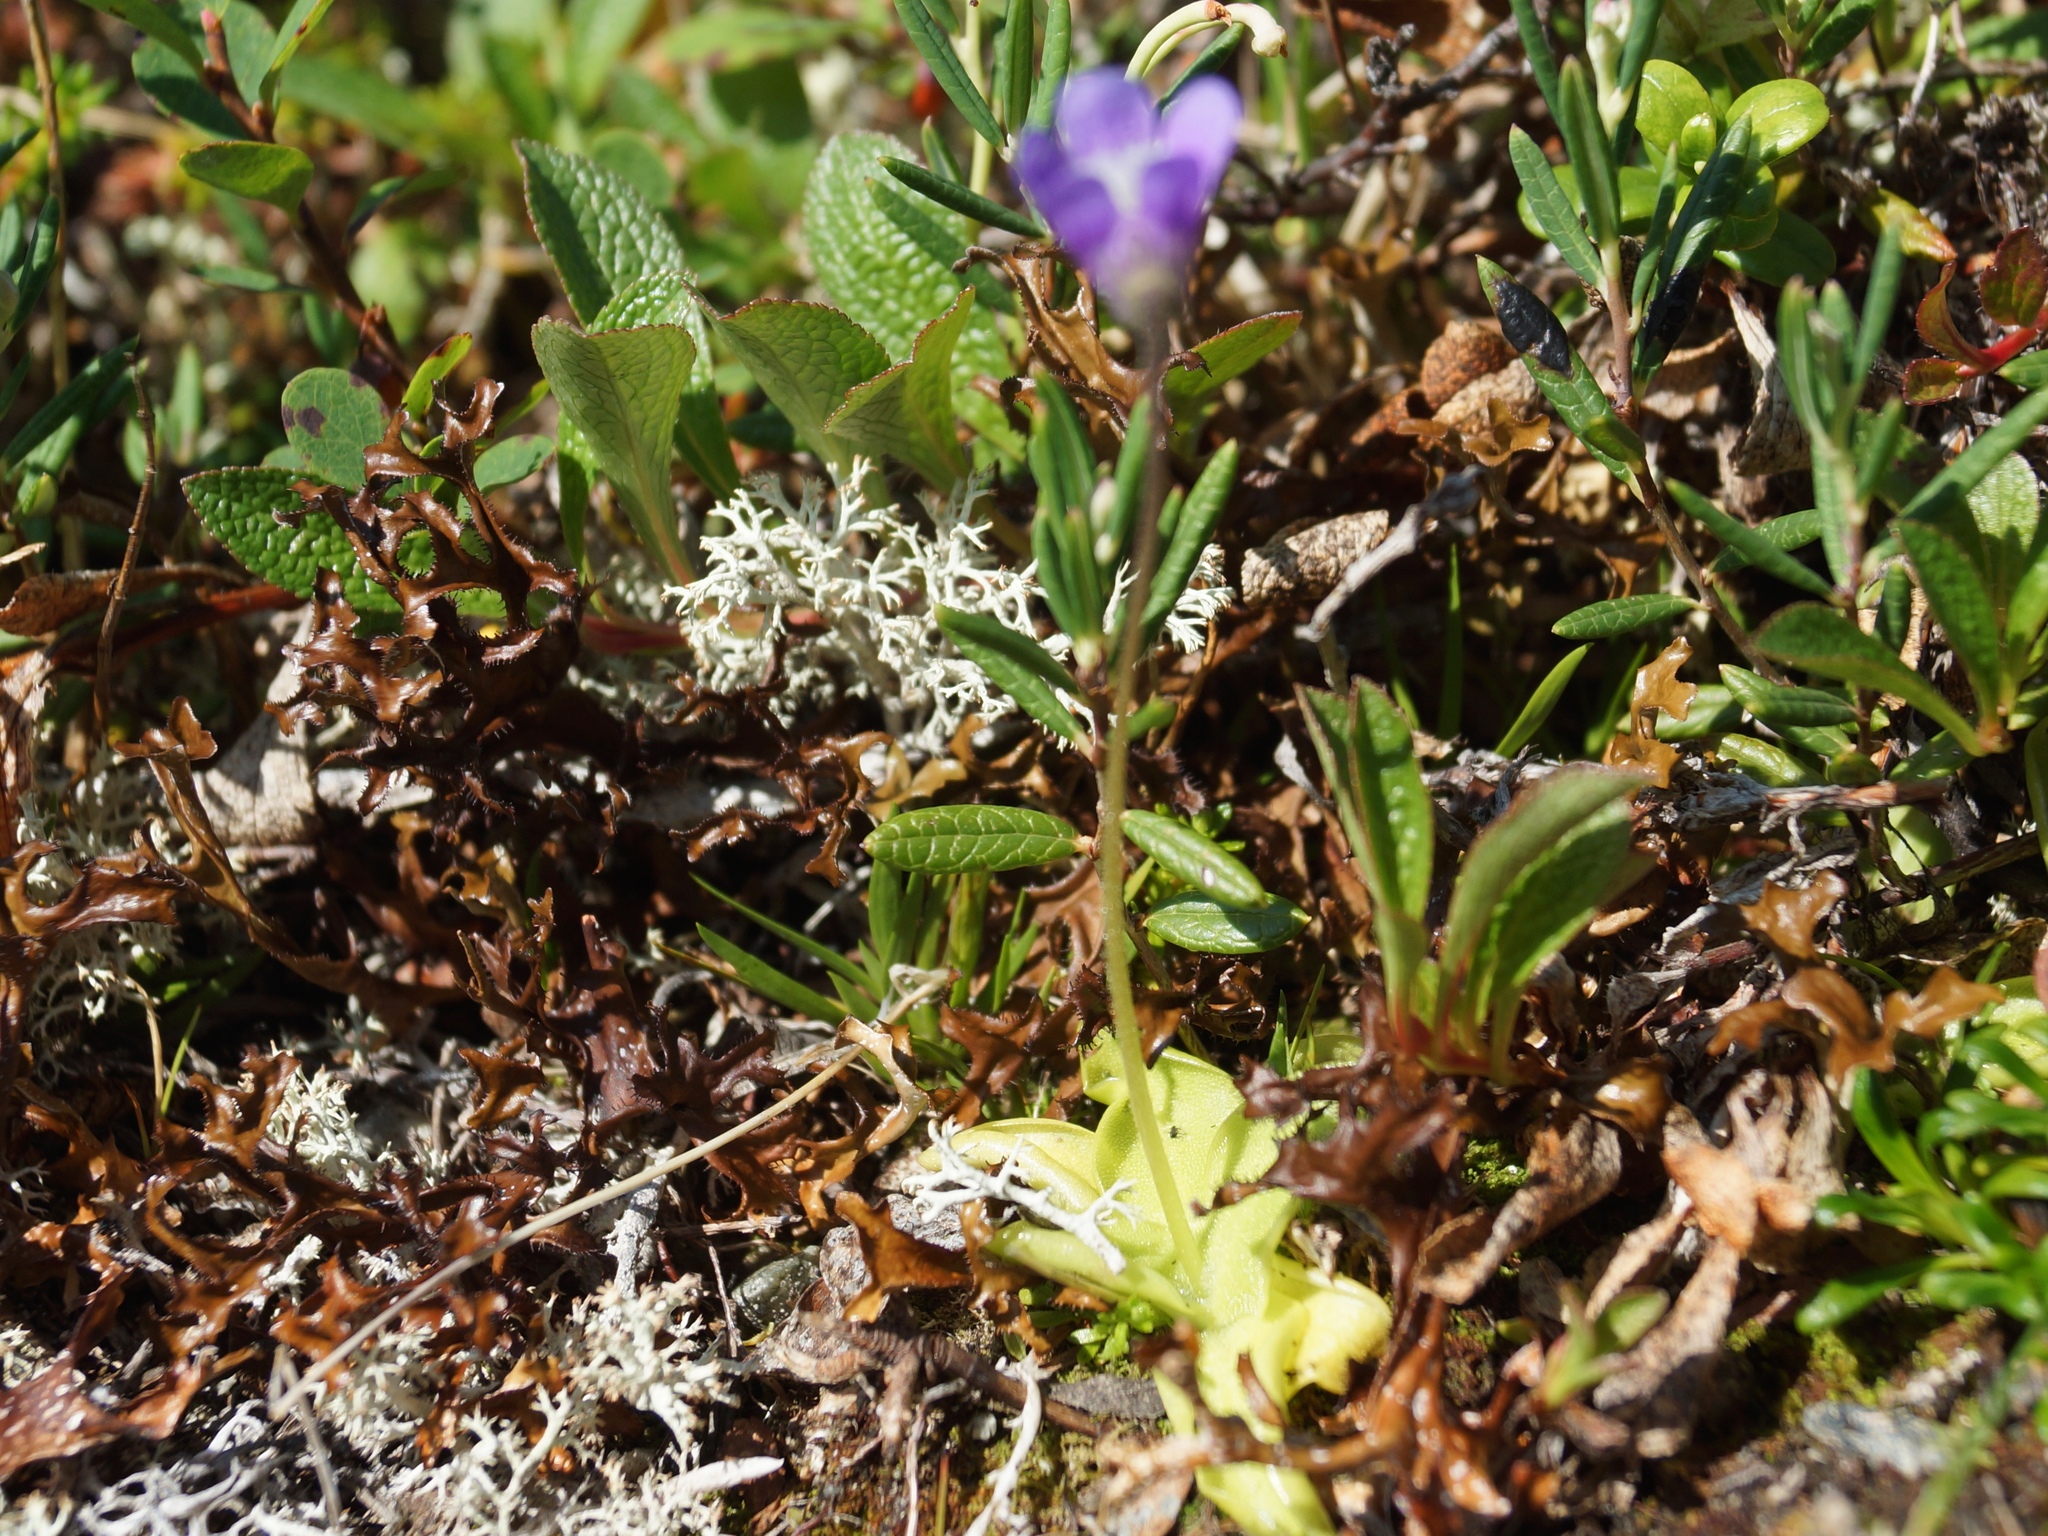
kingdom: Plantae
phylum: Tracheophyta
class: Magnoliopsida
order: Lamiales
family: Lentibulariaceae
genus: Pinguicula
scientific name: Pinguicula vulgaris
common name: Common butterwort
